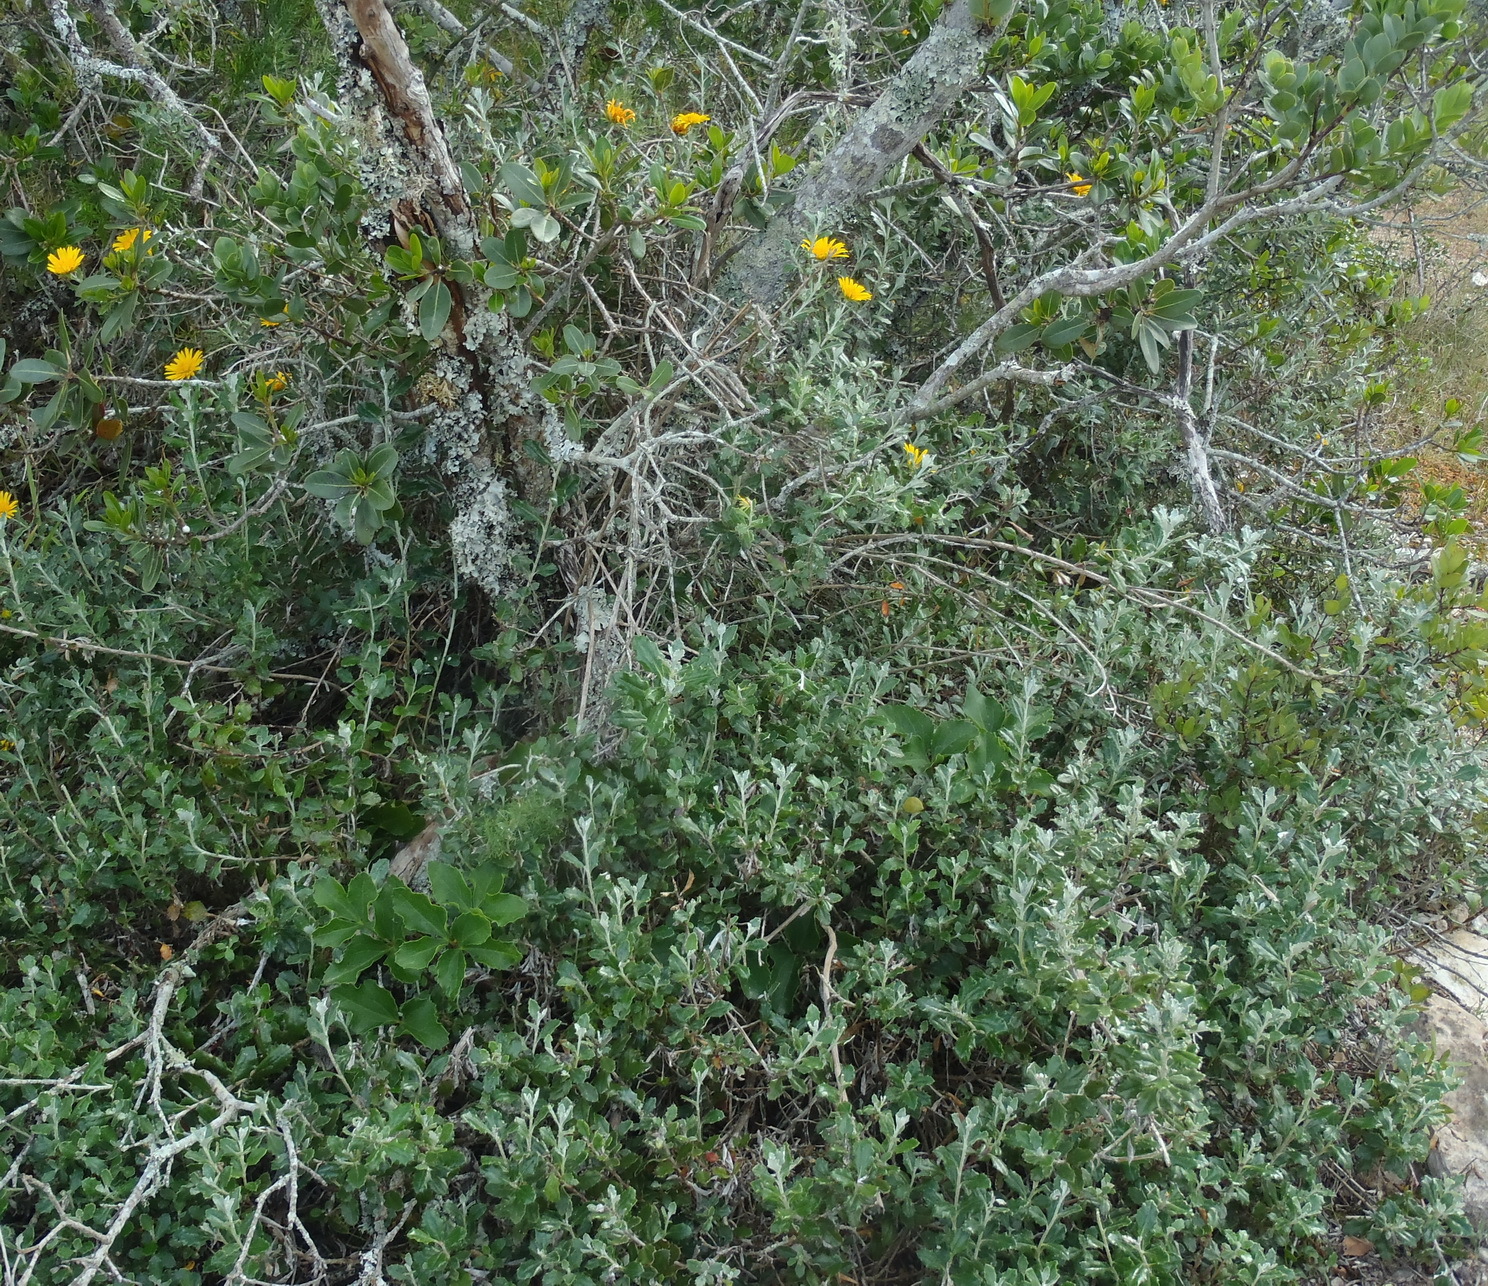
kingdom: Plantae
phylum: Tracheophyta
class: Magnoliopsida
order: Asterales
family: Asteraceae
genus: Berkheya
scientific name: Berkheya coriacea
